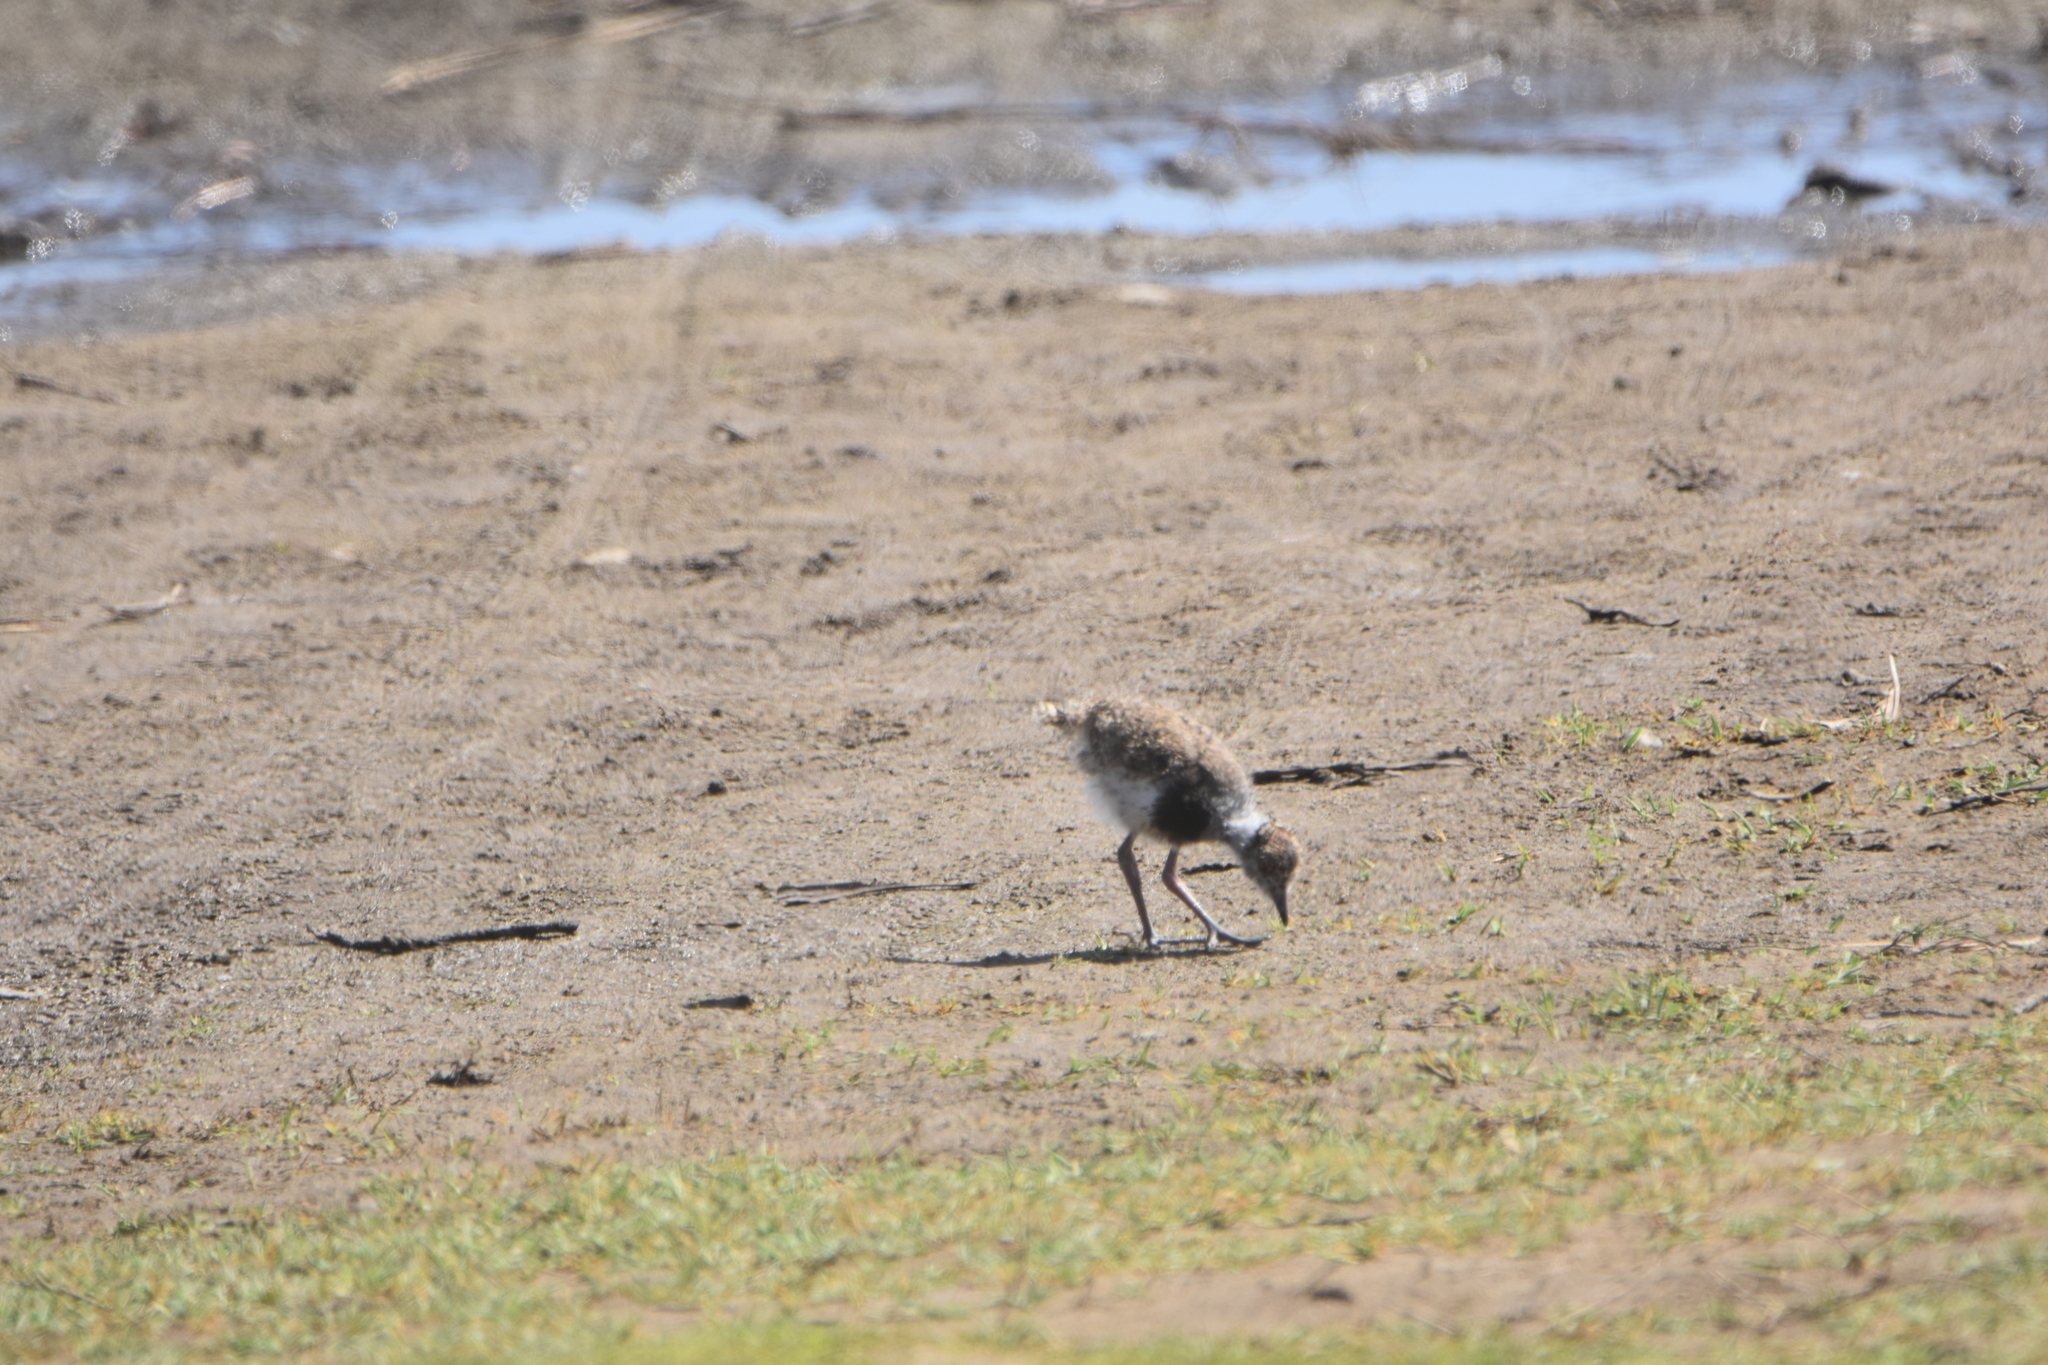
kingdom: Animalia
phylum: Chordata
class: Aves
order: Charadriiformes
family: Charadriidae
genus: Vanellus
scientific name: Vanellus chilensis
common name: Southern lapwing
